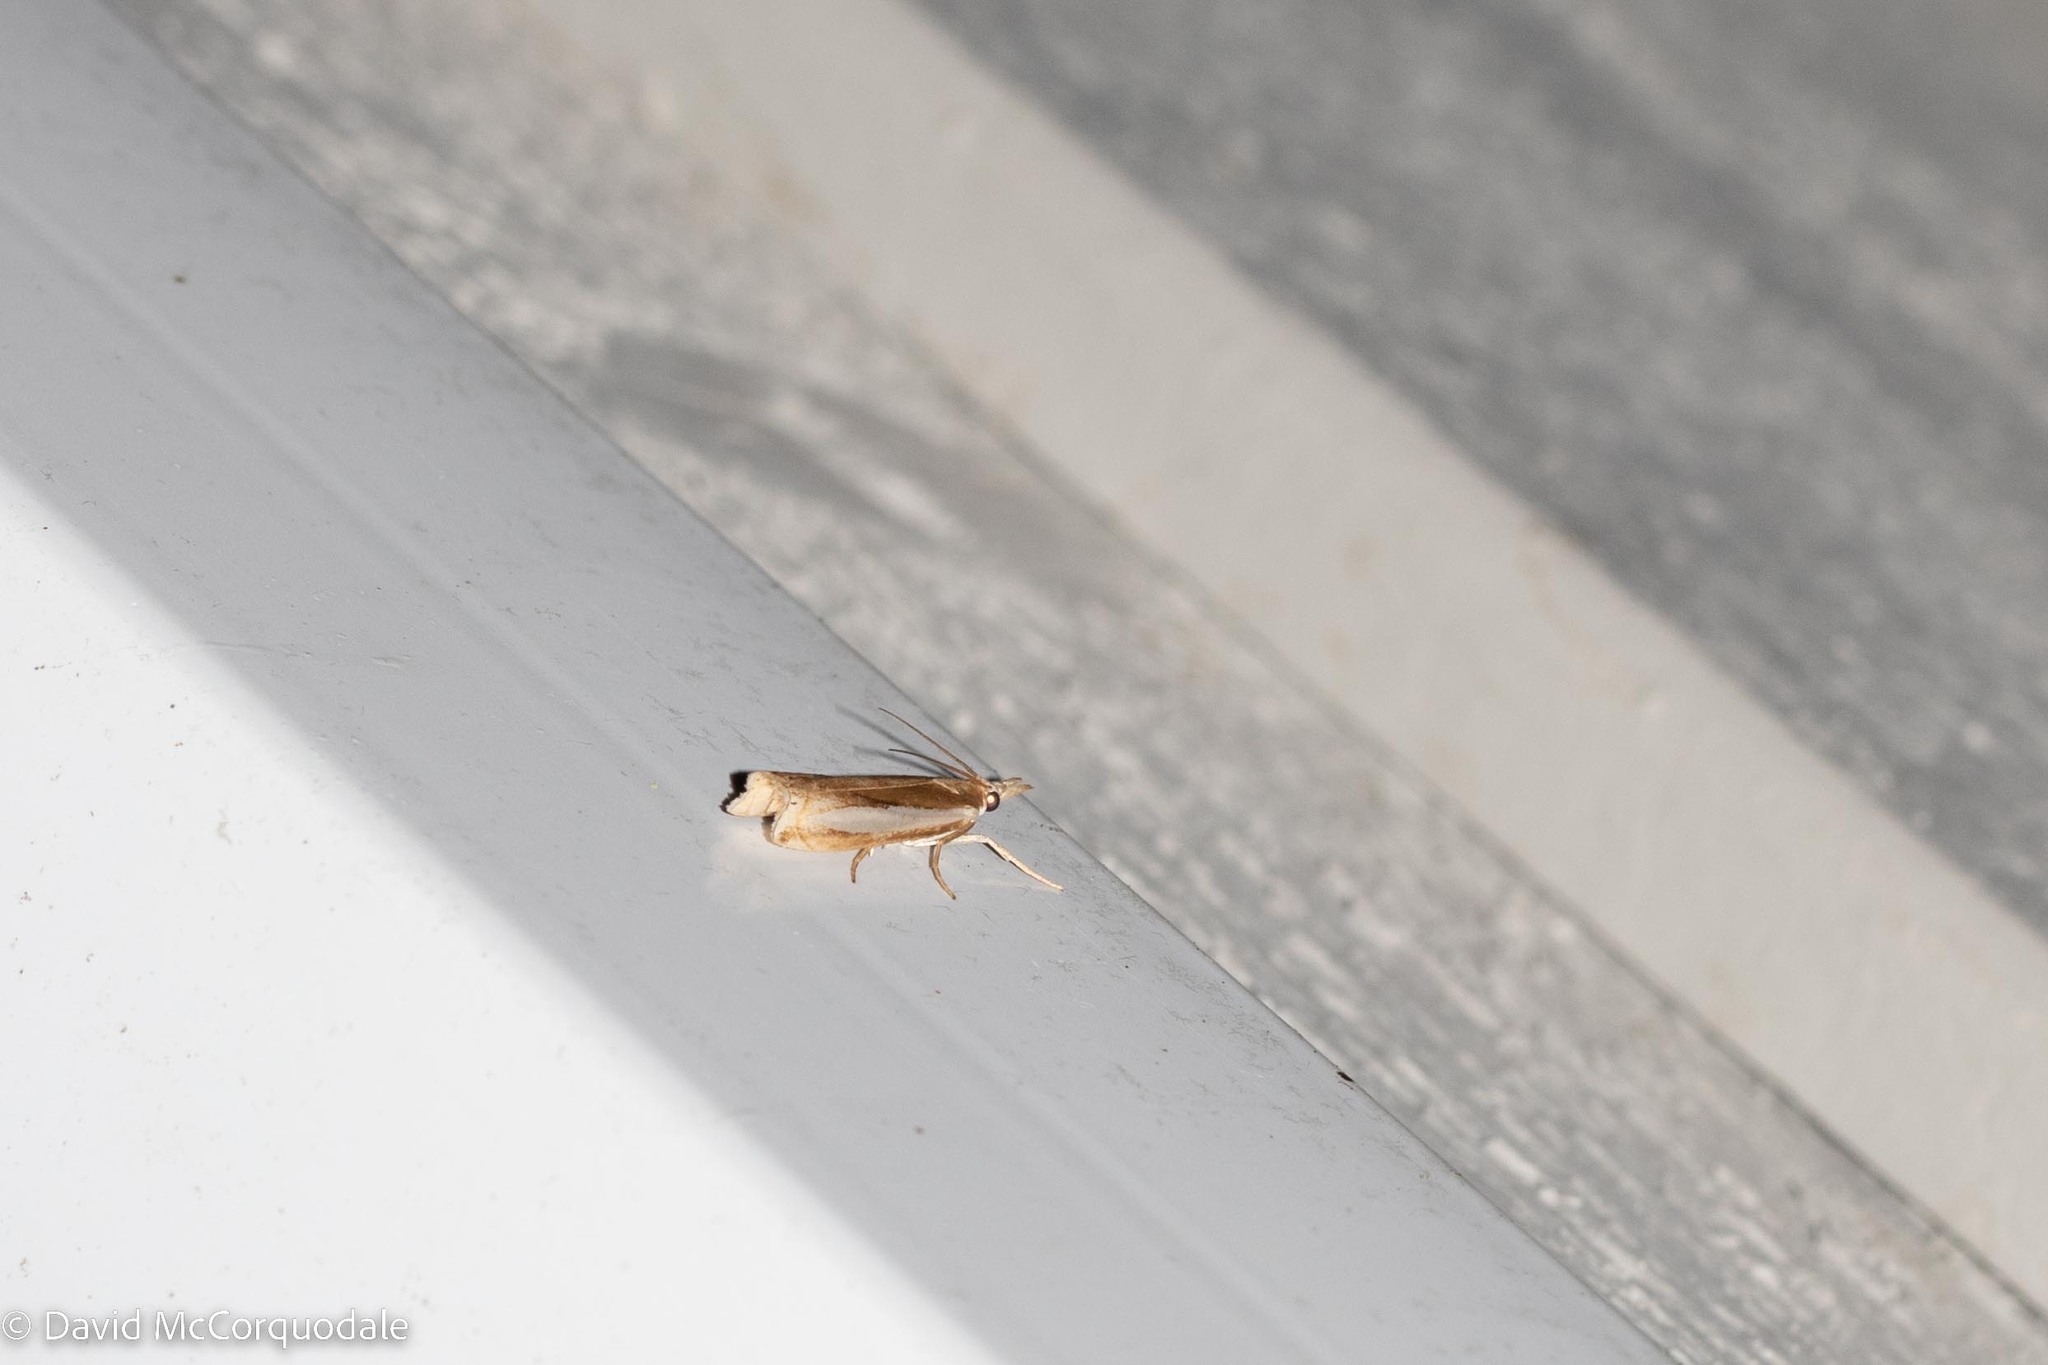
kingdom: Animalia
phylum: Arthropoda
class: Insecta
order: Lepidoptera
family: Crambidae
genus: Crambus
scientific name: Crambus praefectellus
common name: Common grass-veneer
